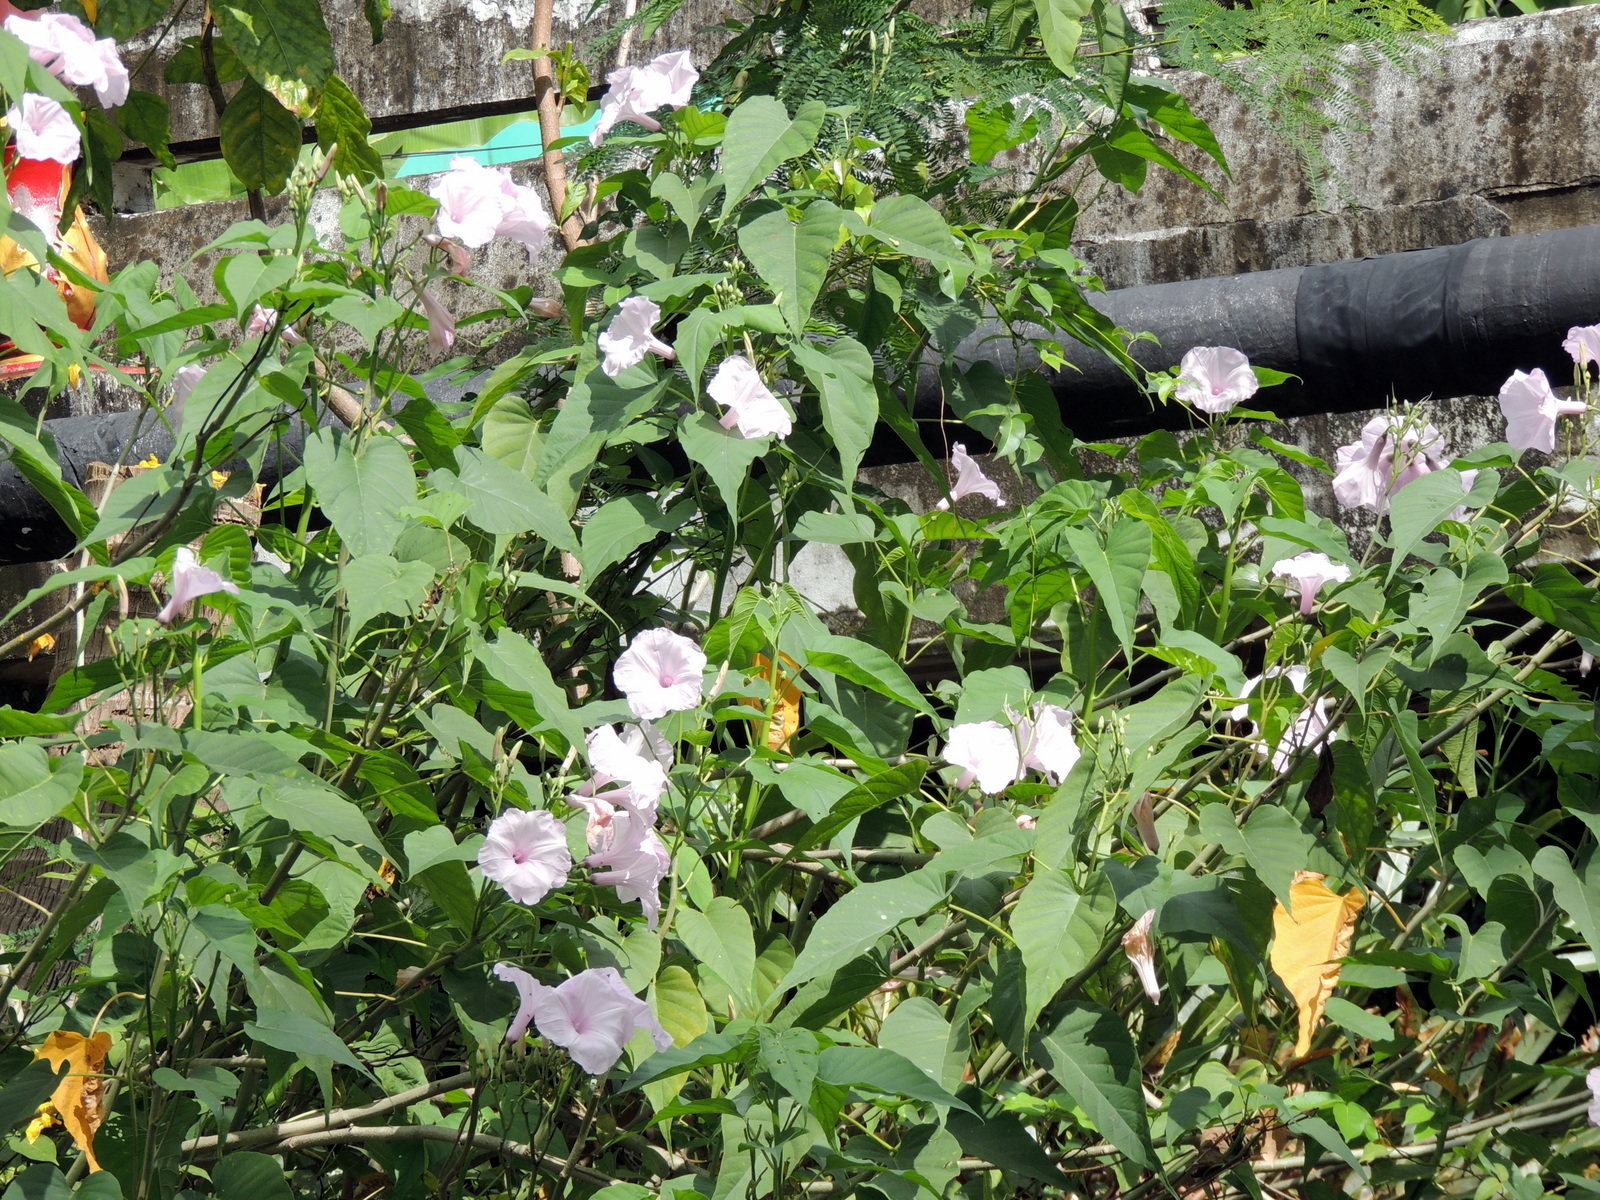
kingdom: Plantae
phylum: Tracheophyta
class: Magnoliopsida
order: Solanales
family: Convolvulaceae
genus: Ipomoea
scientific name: Ipomoea carnea
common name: Morning-glory
